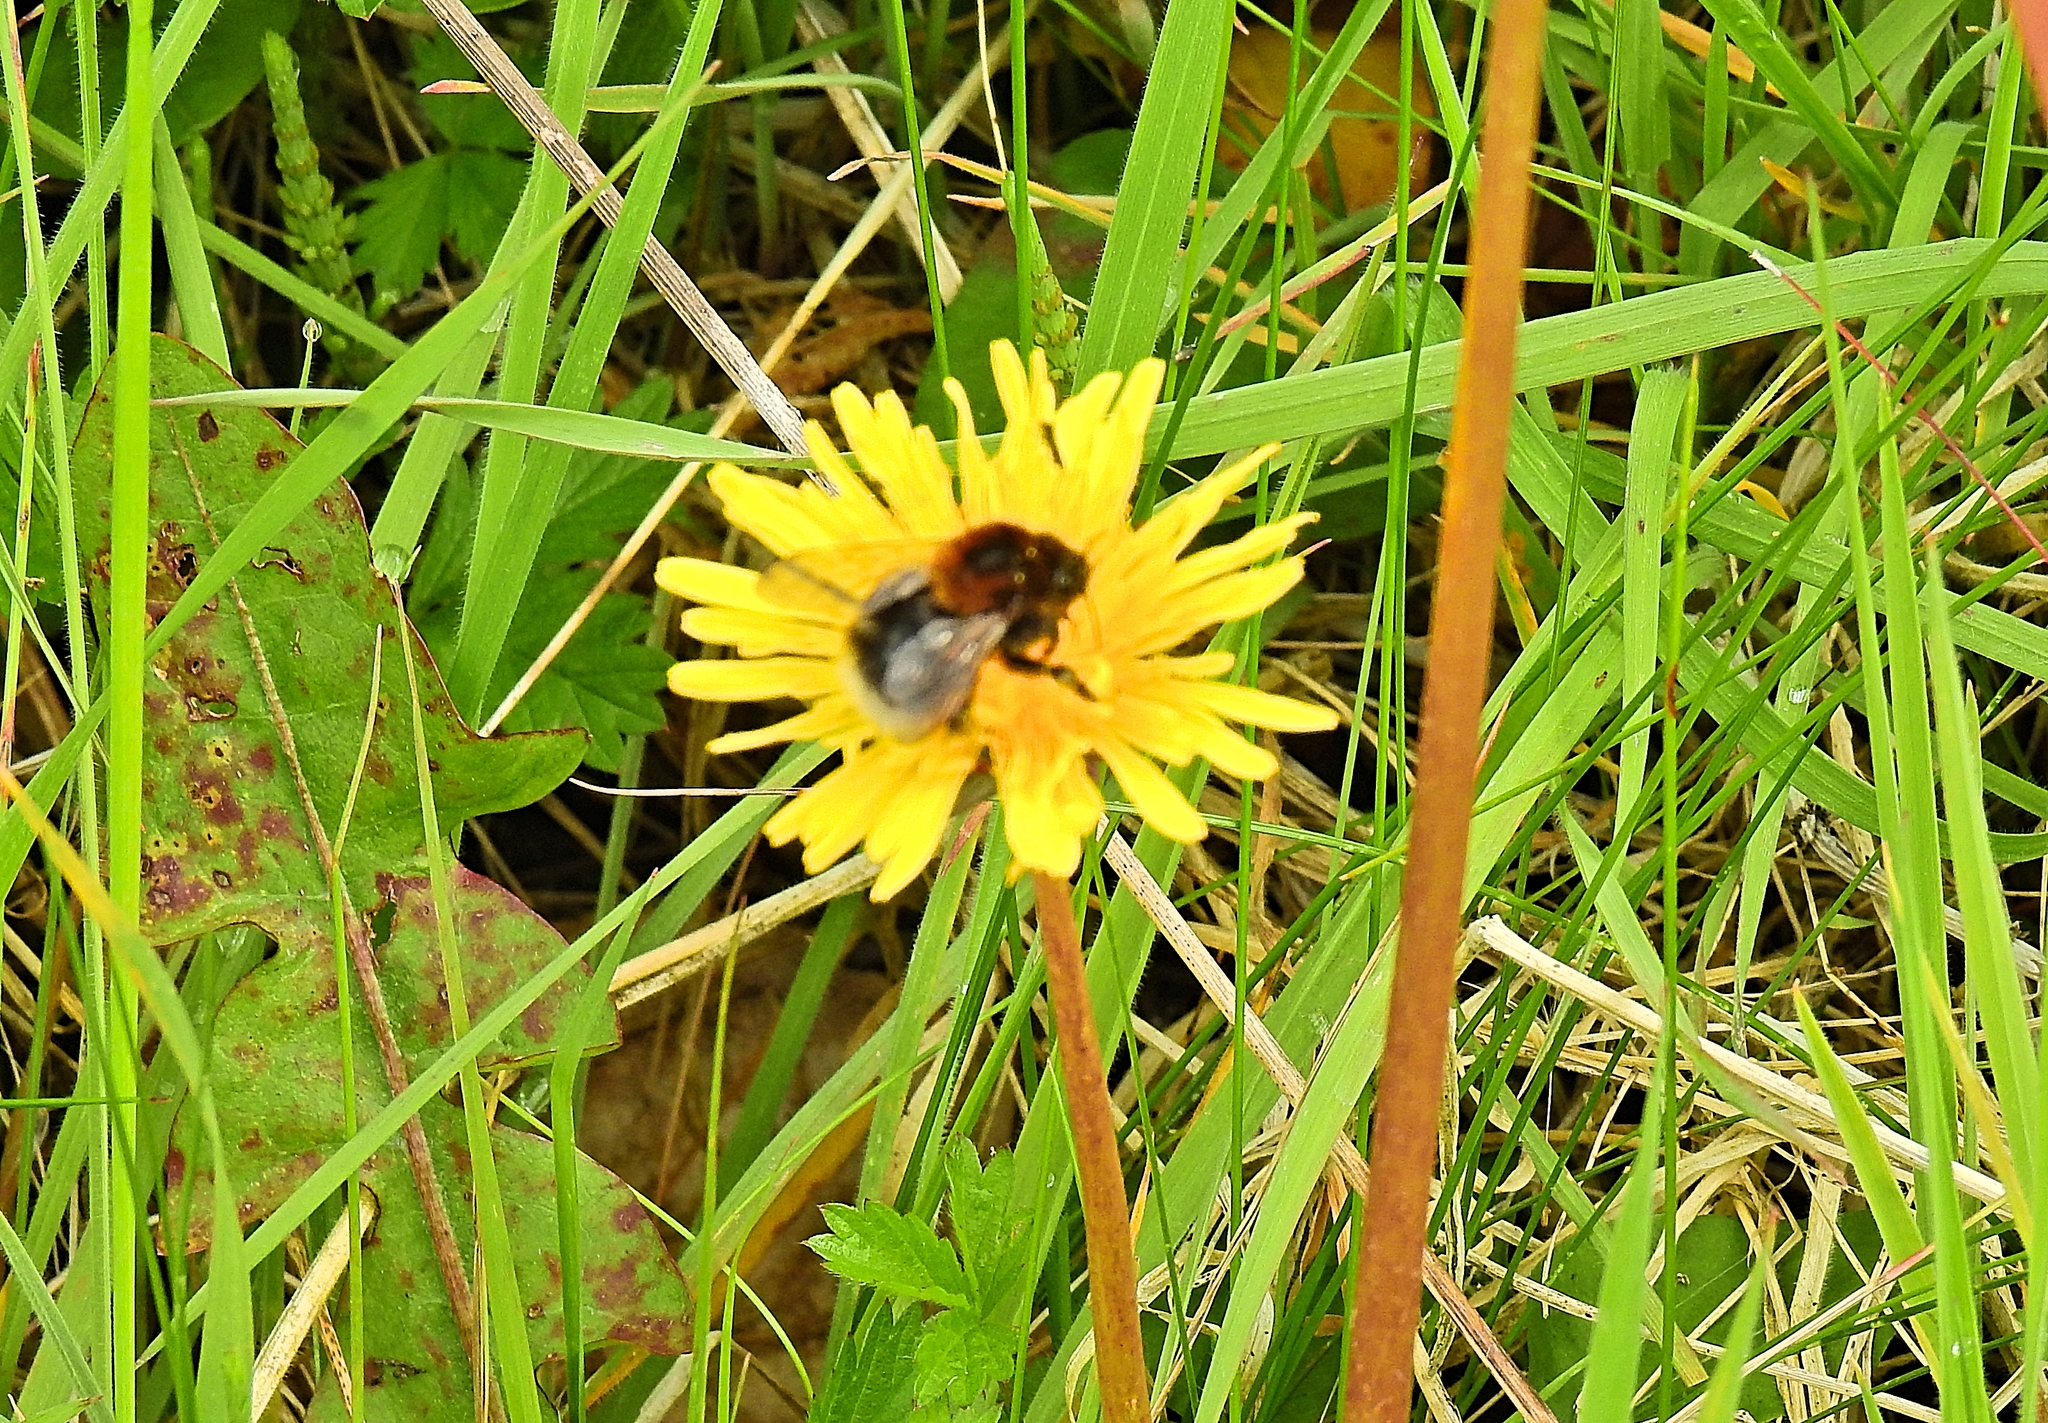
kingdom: Animalia
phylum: Arthropoda
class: Insecta
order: Hymenoptera
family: Apidae
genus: Bombus
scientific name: Bombus hypnorum
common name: New garden bumblebee
